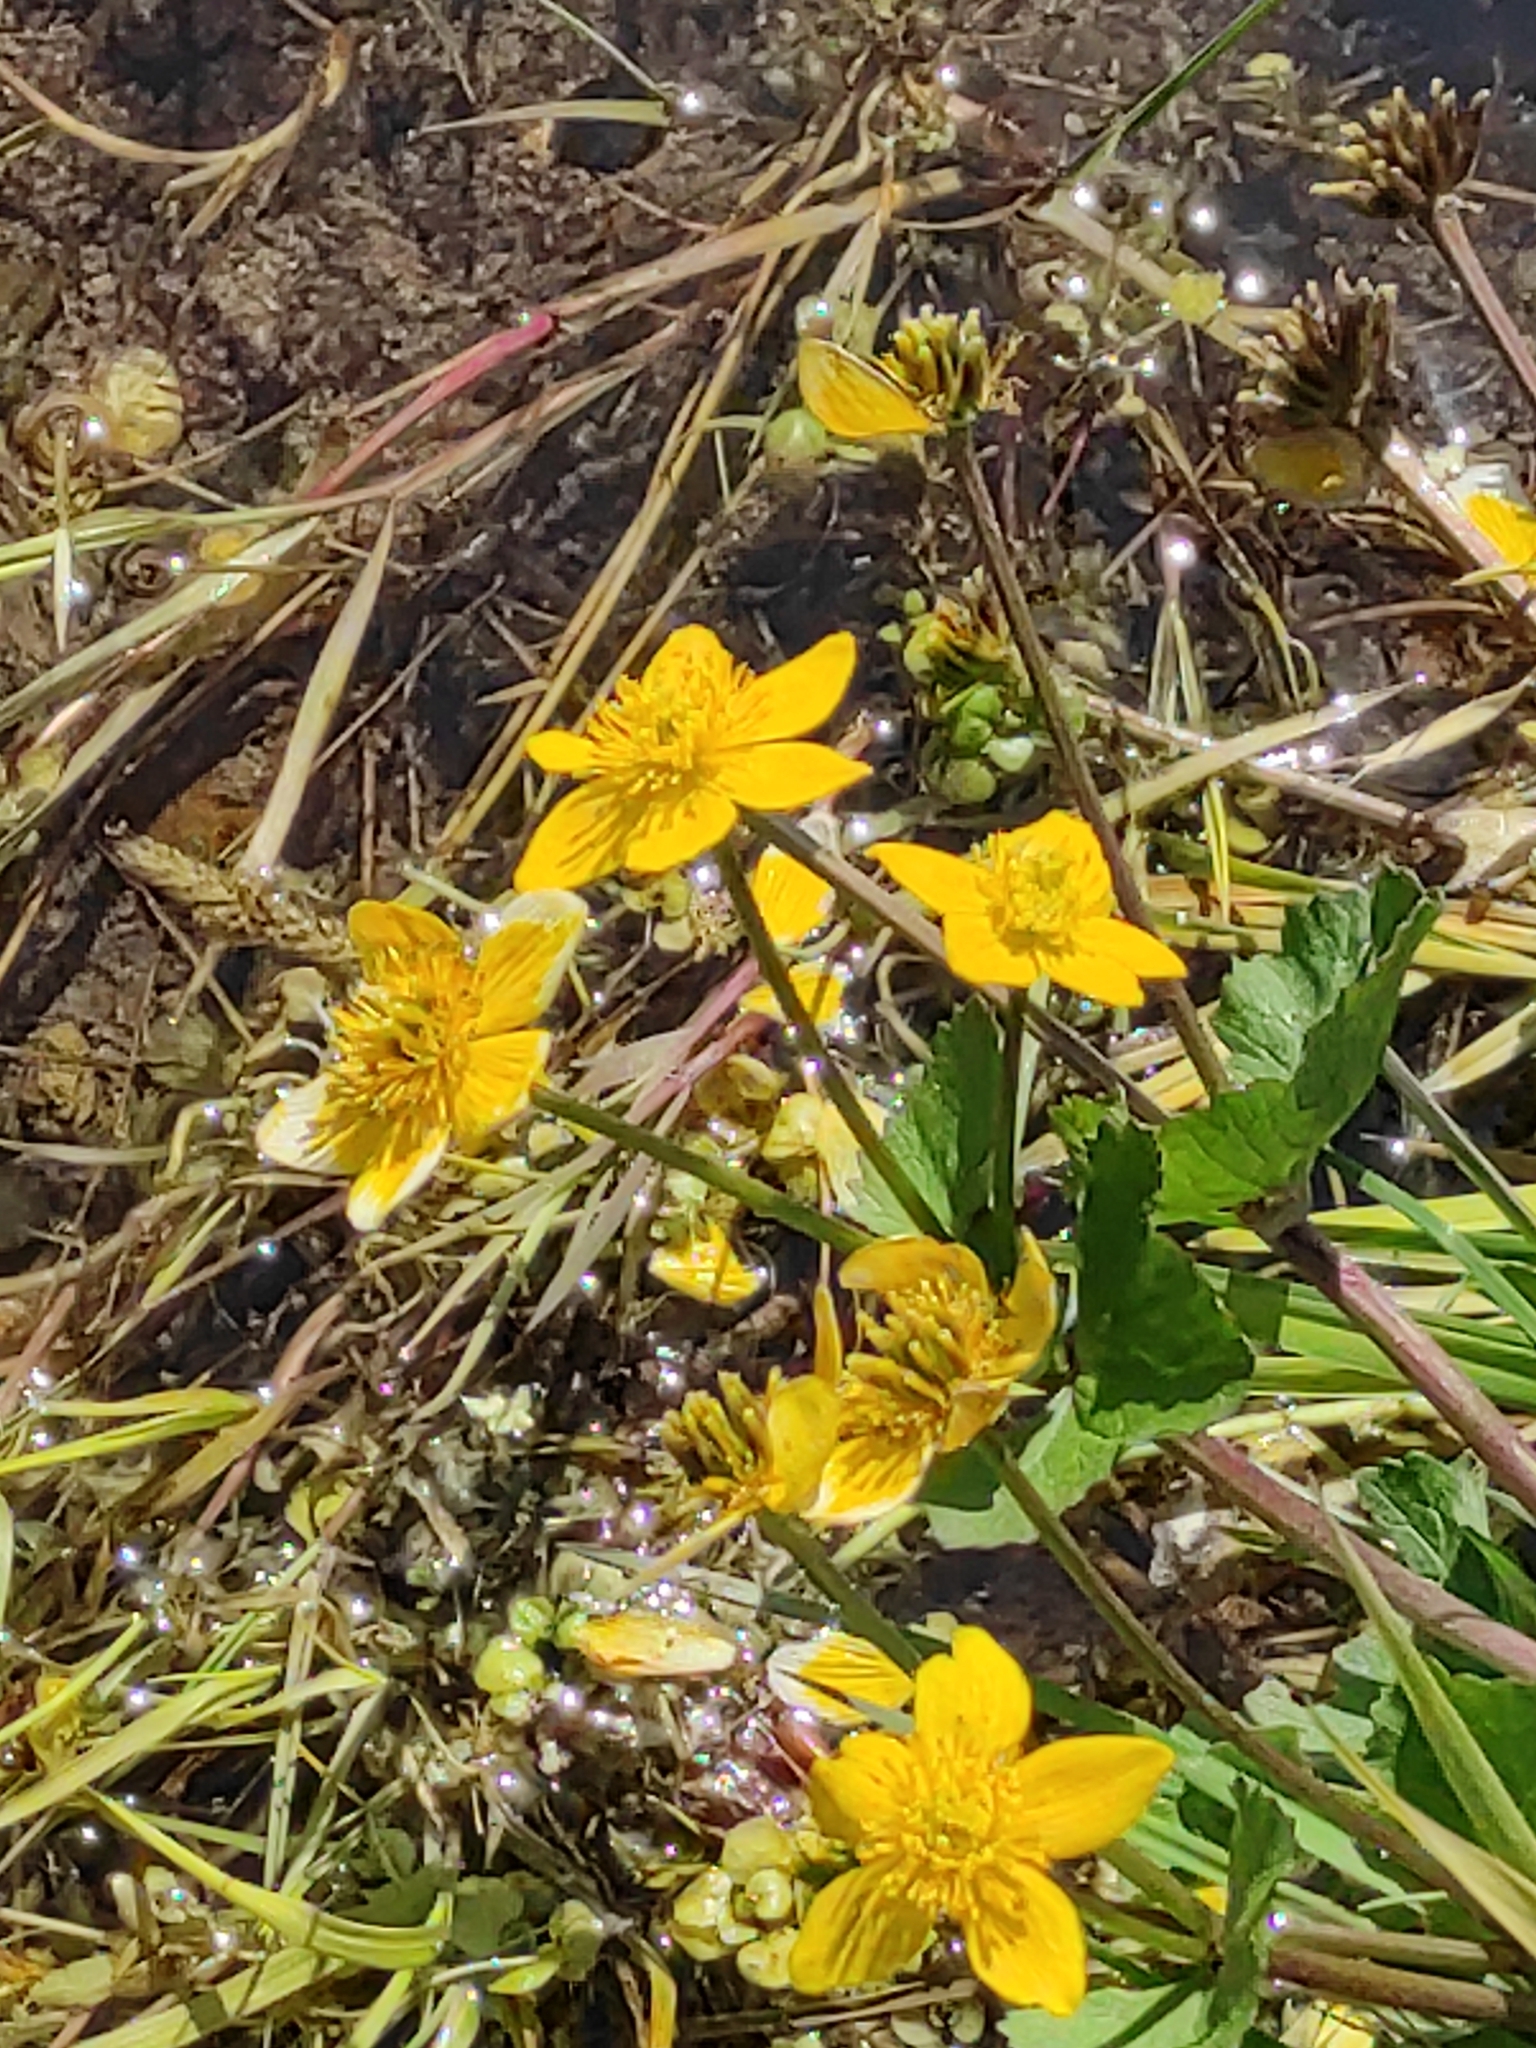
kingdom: Plantae
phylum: Tracheophyta
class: Magnoliopsida
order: Ranunculales
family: Ranunculaceae
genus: Caltha
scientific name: Caltha palustris
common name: Marsh marigold
